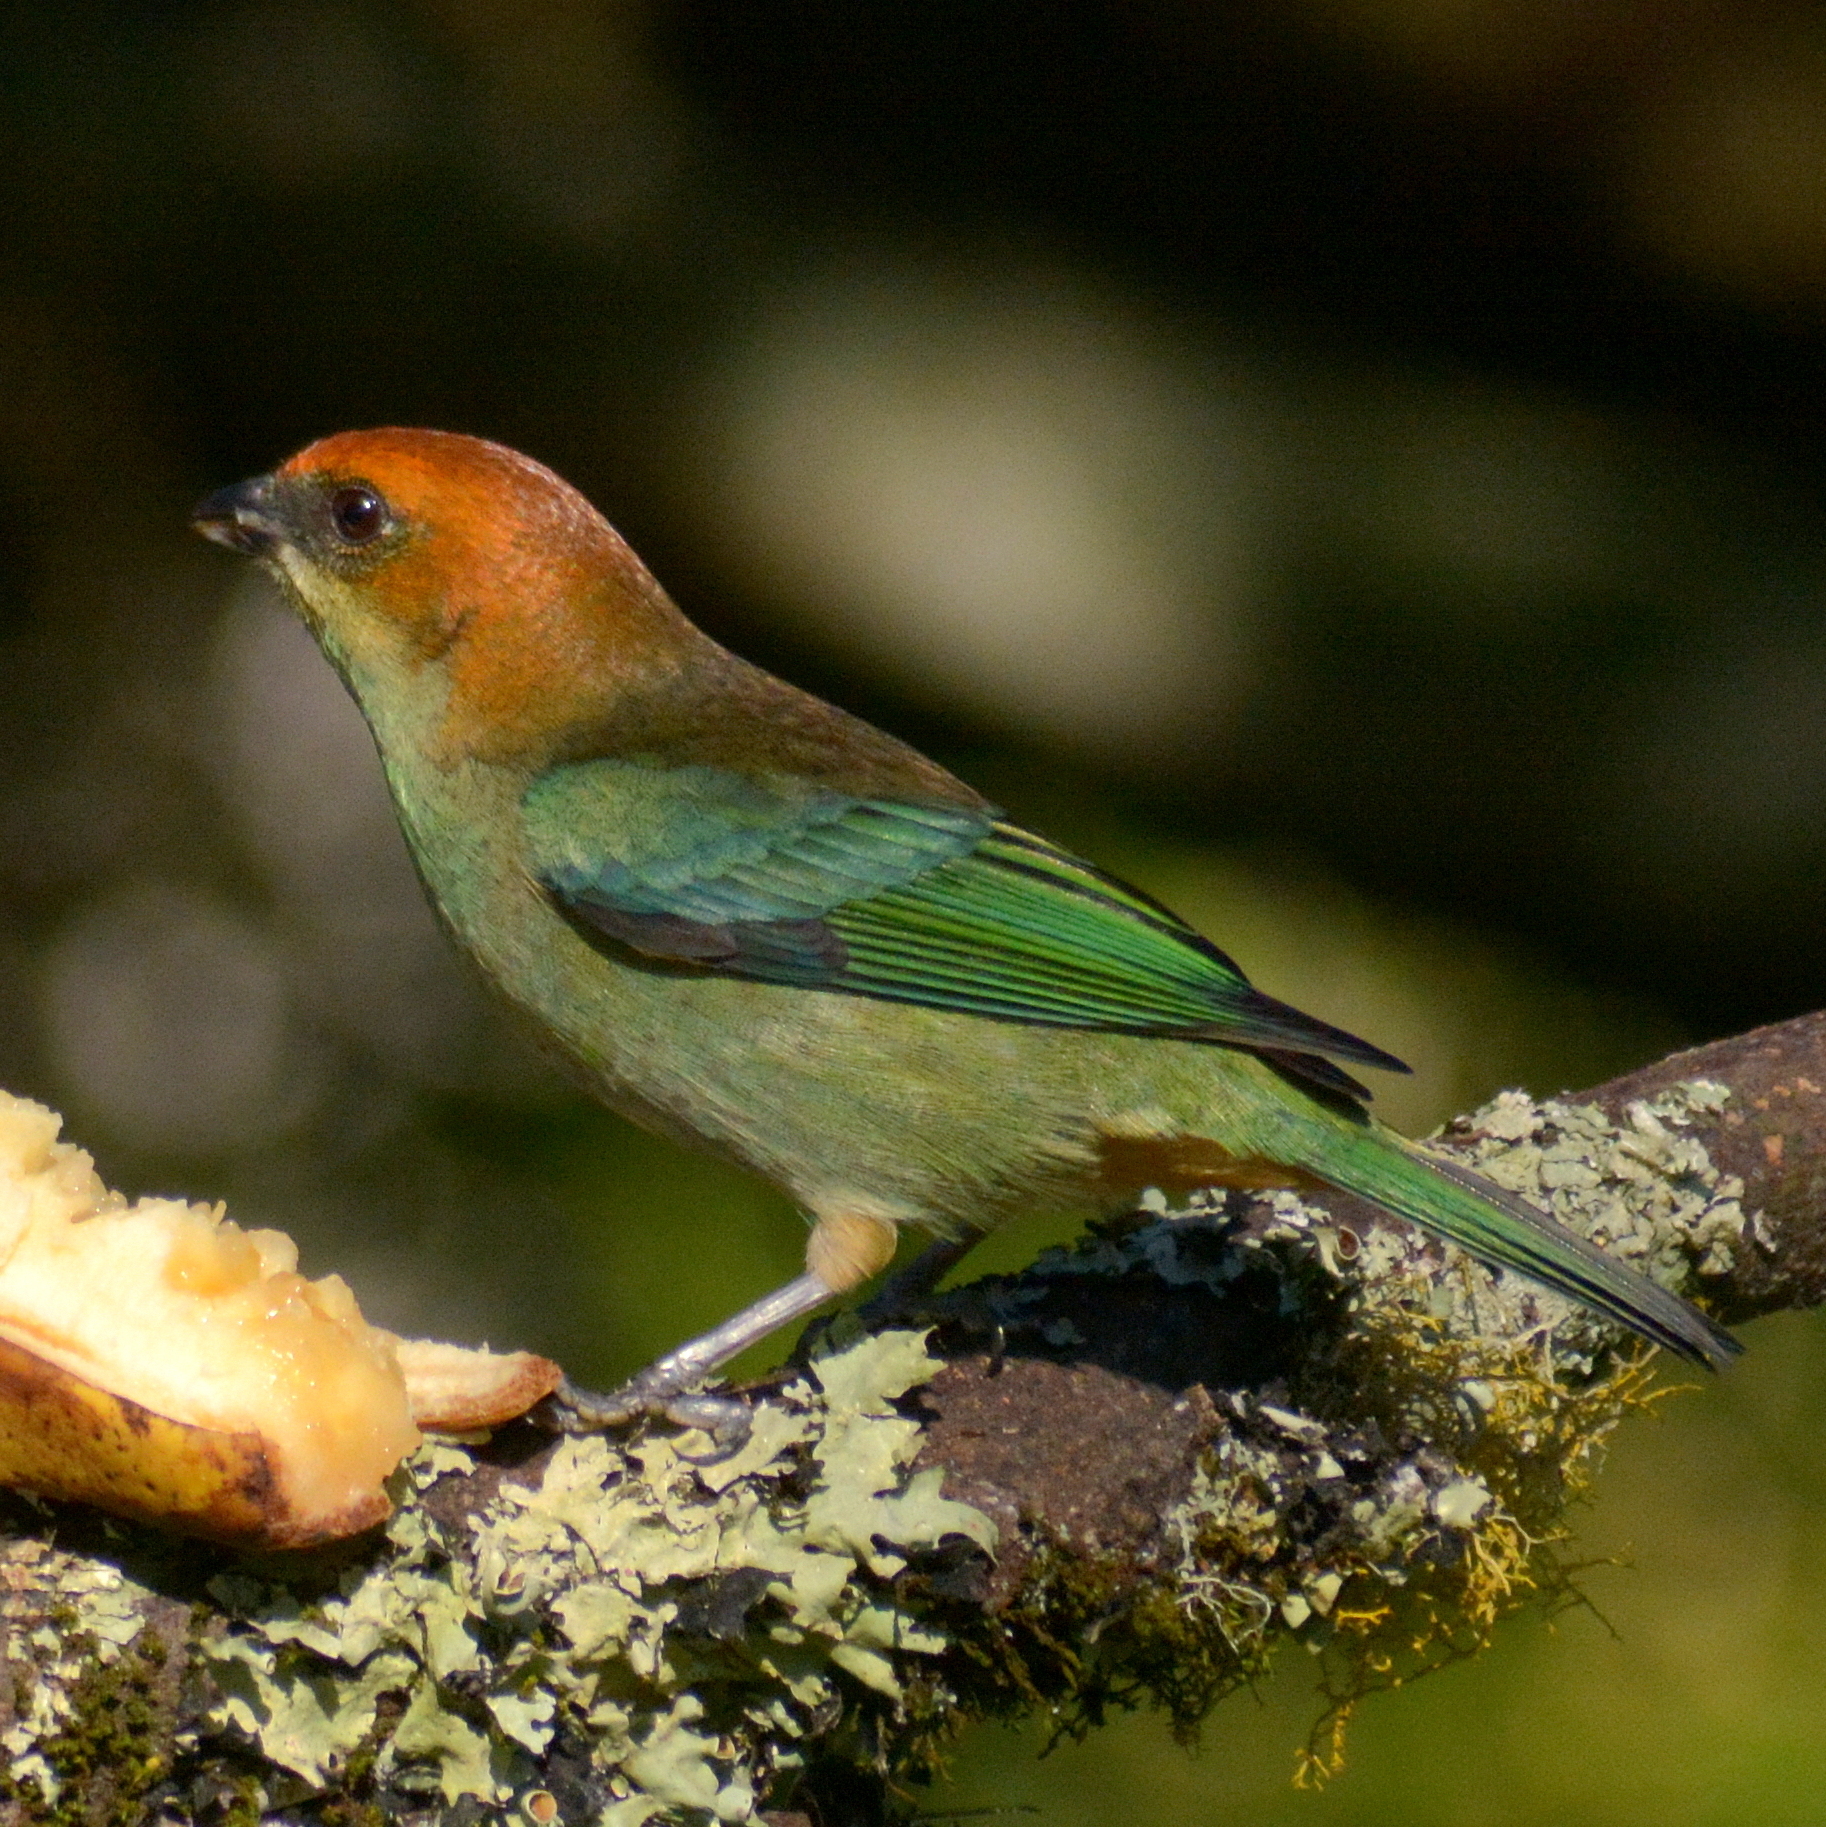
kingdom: Animalia
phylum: Chordata
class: Aves
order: Passeriformes
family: Thraupidae
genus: Stilpnia
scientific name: Stilpnia preciosa
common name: Chestnut-backed tanager
